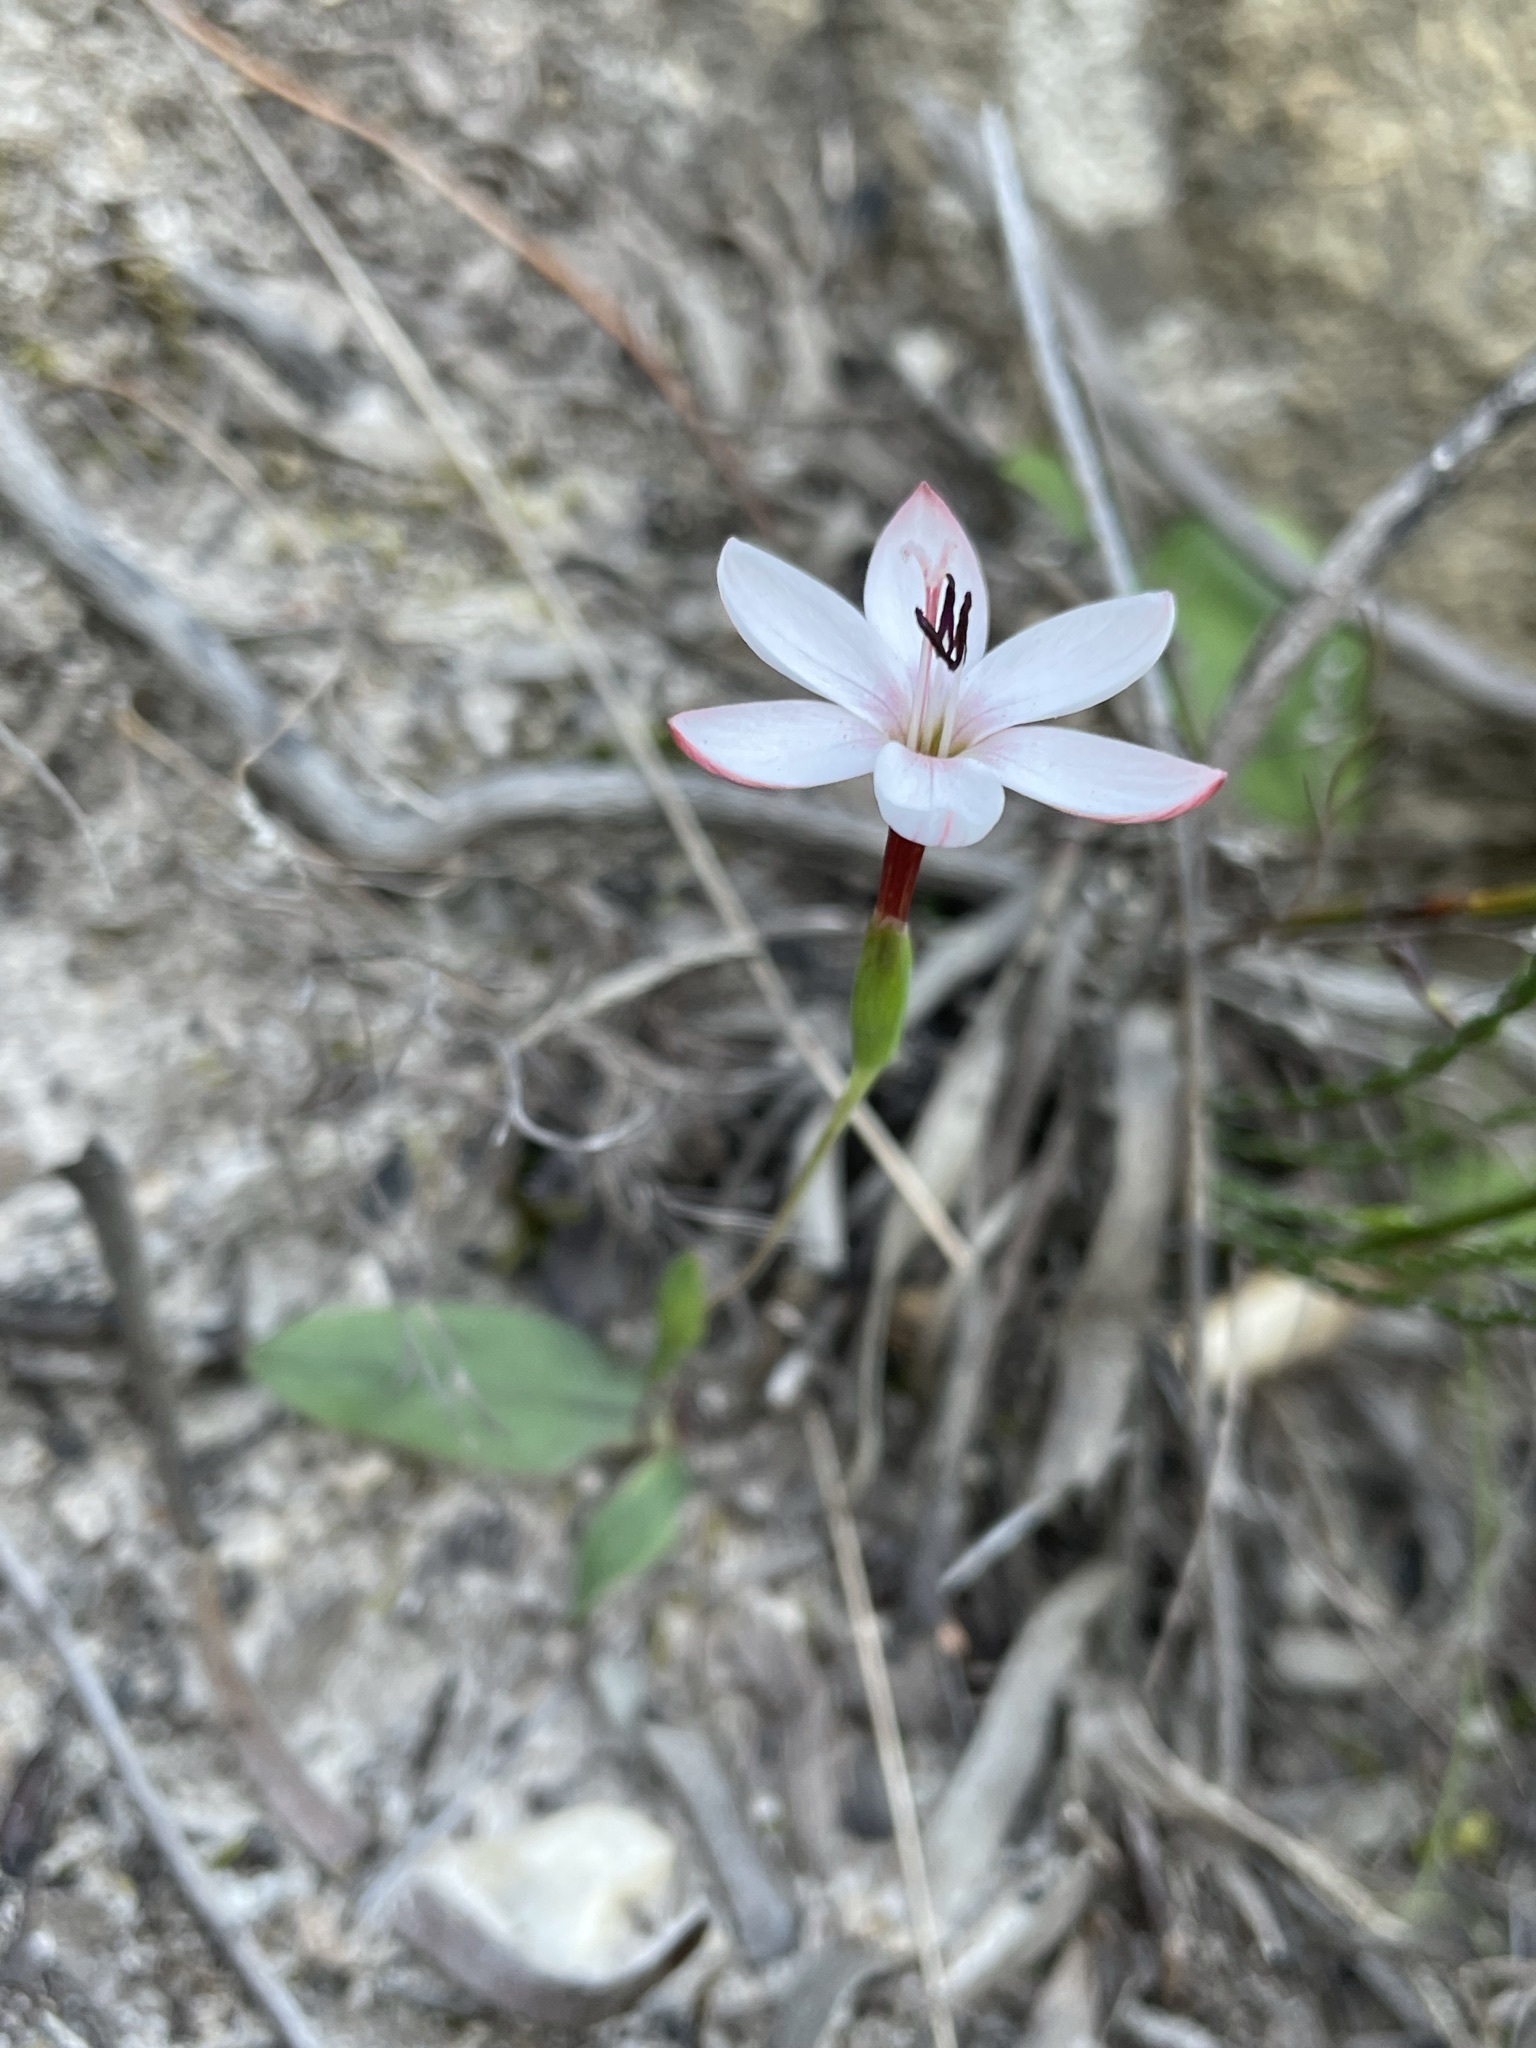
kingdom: Plantae
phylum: Tracheophyta
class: Liliopsida
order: Asparagales
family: Iridaceae
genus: Geissorhiza
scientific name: Geissorhiza ovata
